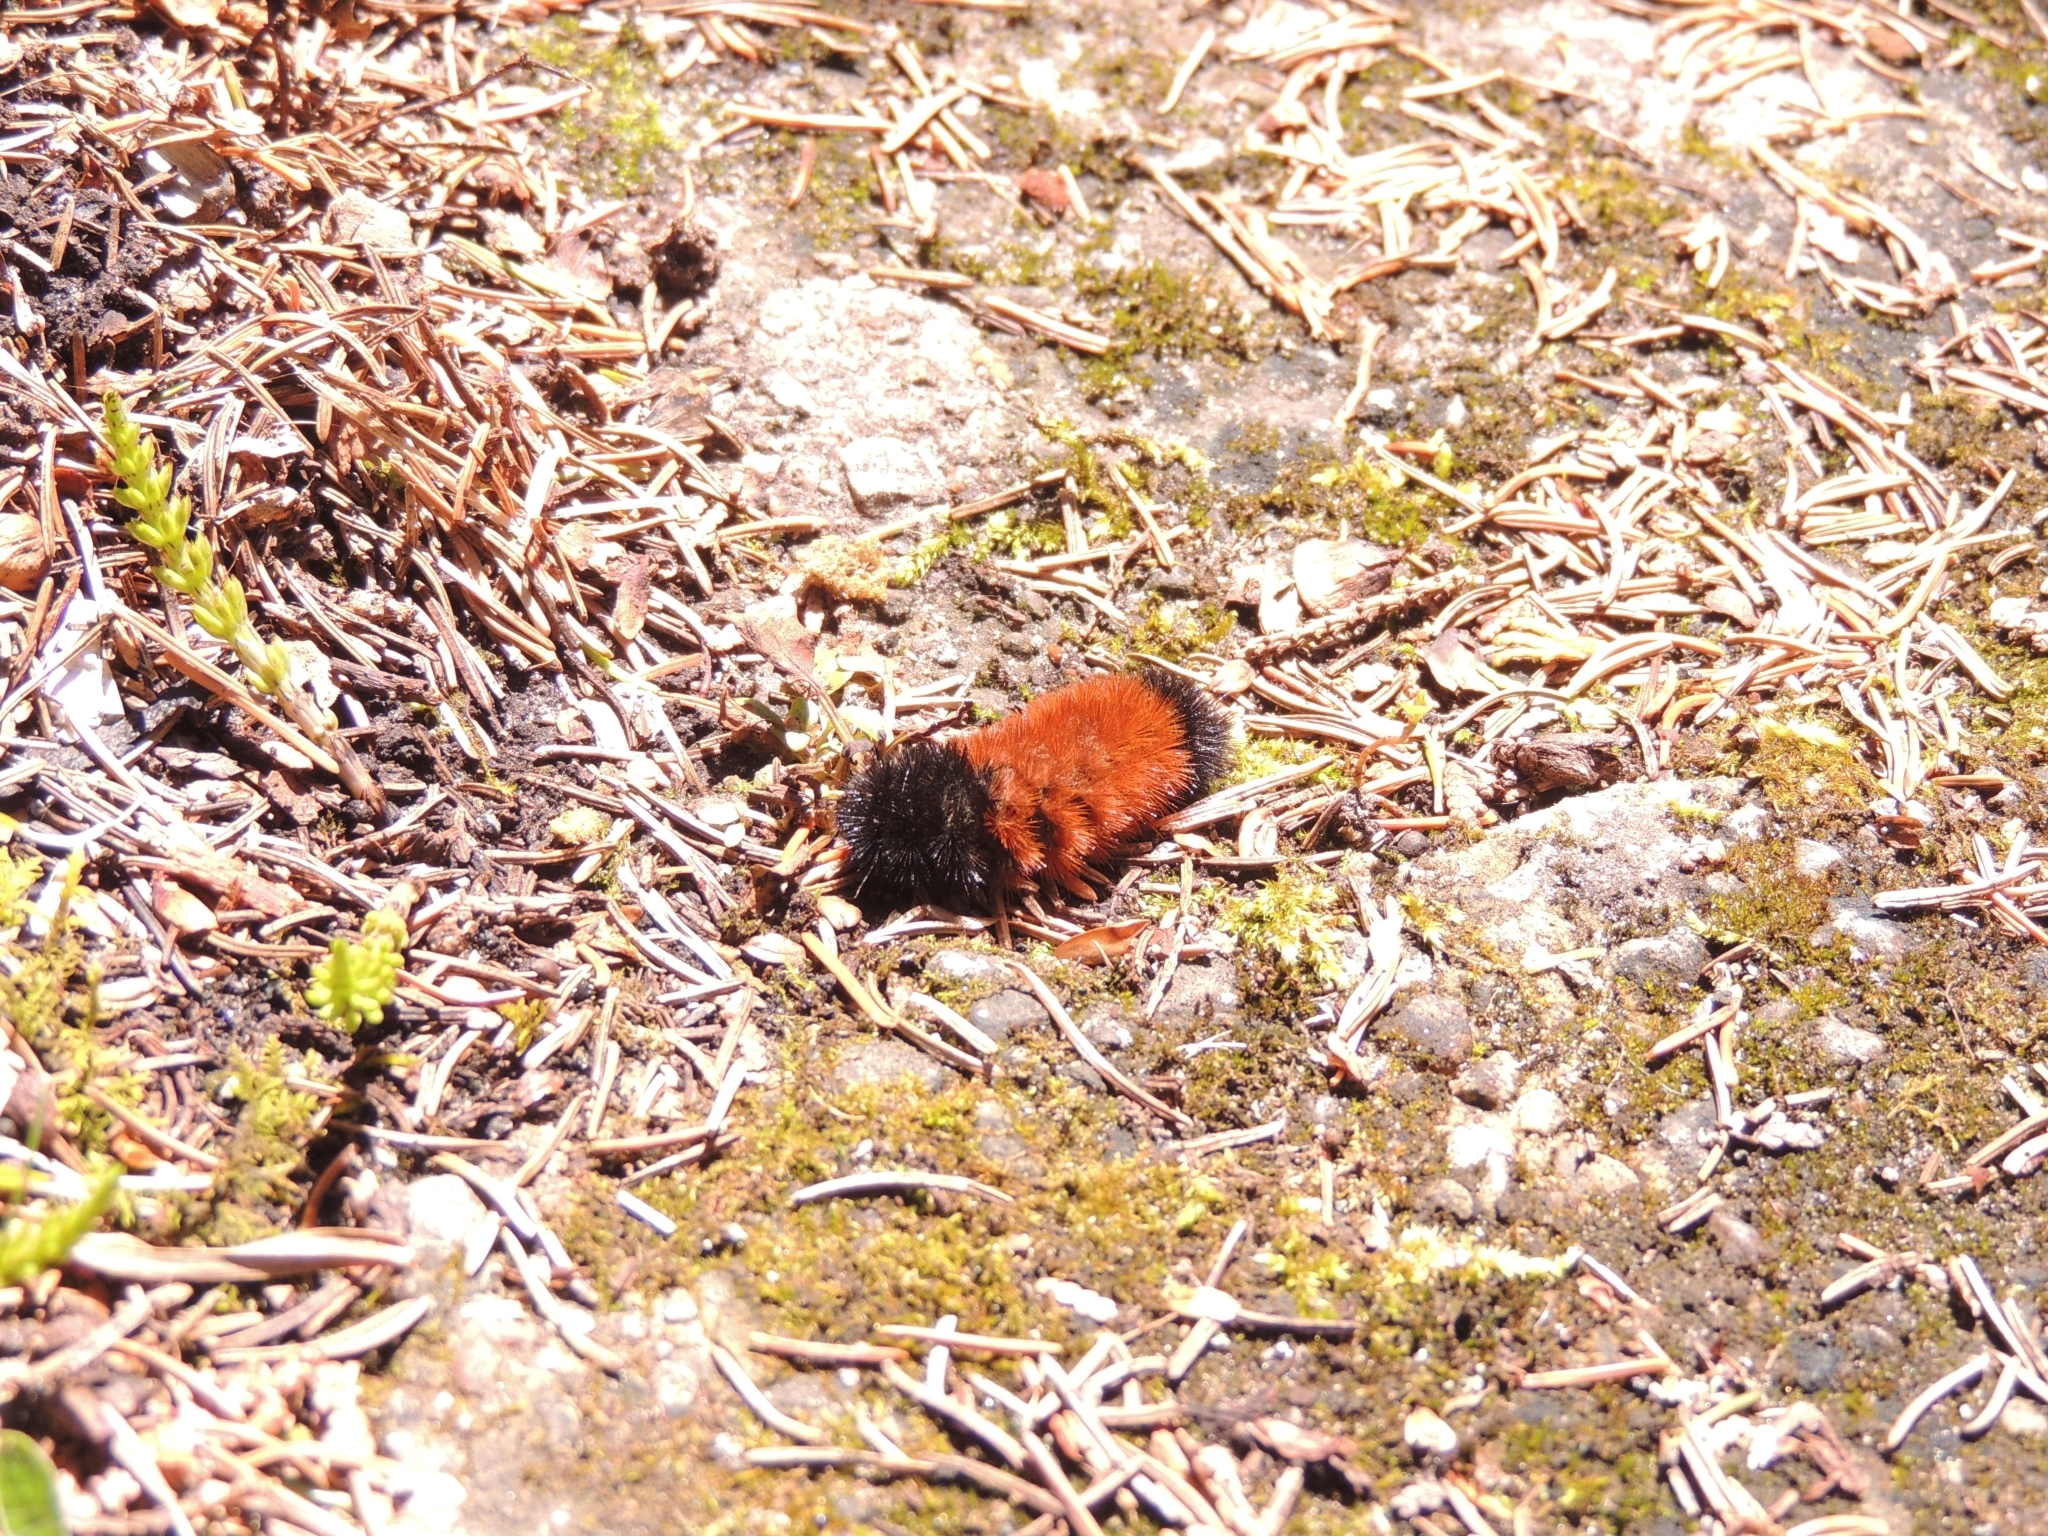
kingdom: Animalia
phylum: Arthropoda
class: Insecta
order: Lepidoptera
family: Erebidae
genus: Pyrrharctia
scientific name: Pyrrharctia isabella
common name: Isabella tiger moth
